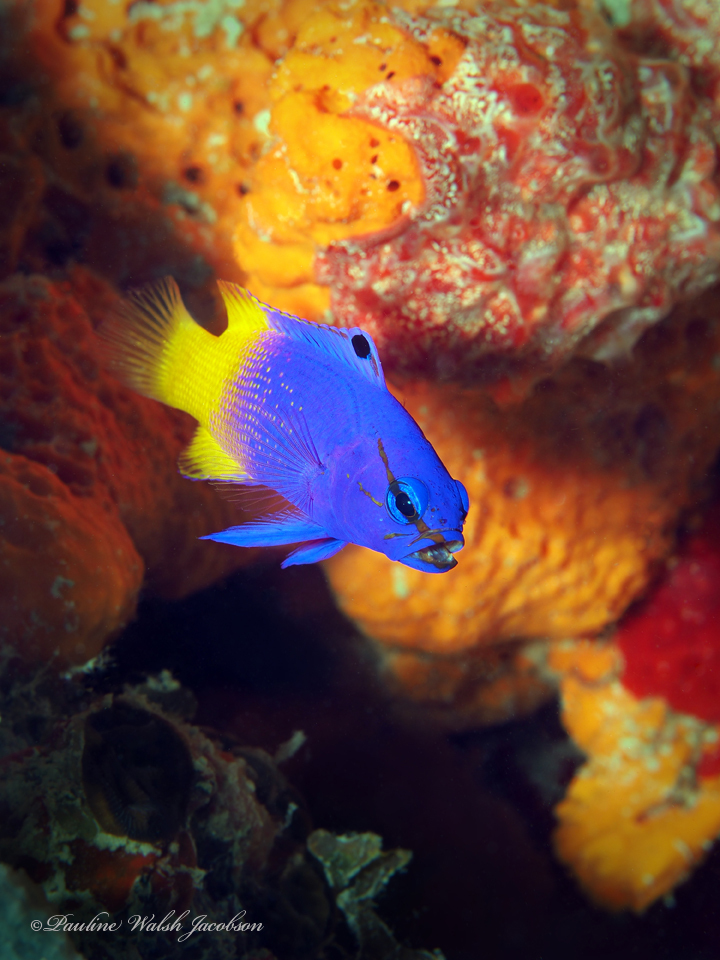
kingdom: Animalia
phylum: Chordata
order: Perciformes
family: Grammatidae
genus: Gramma
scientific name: Gramma loreto
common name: Fairy basslet
